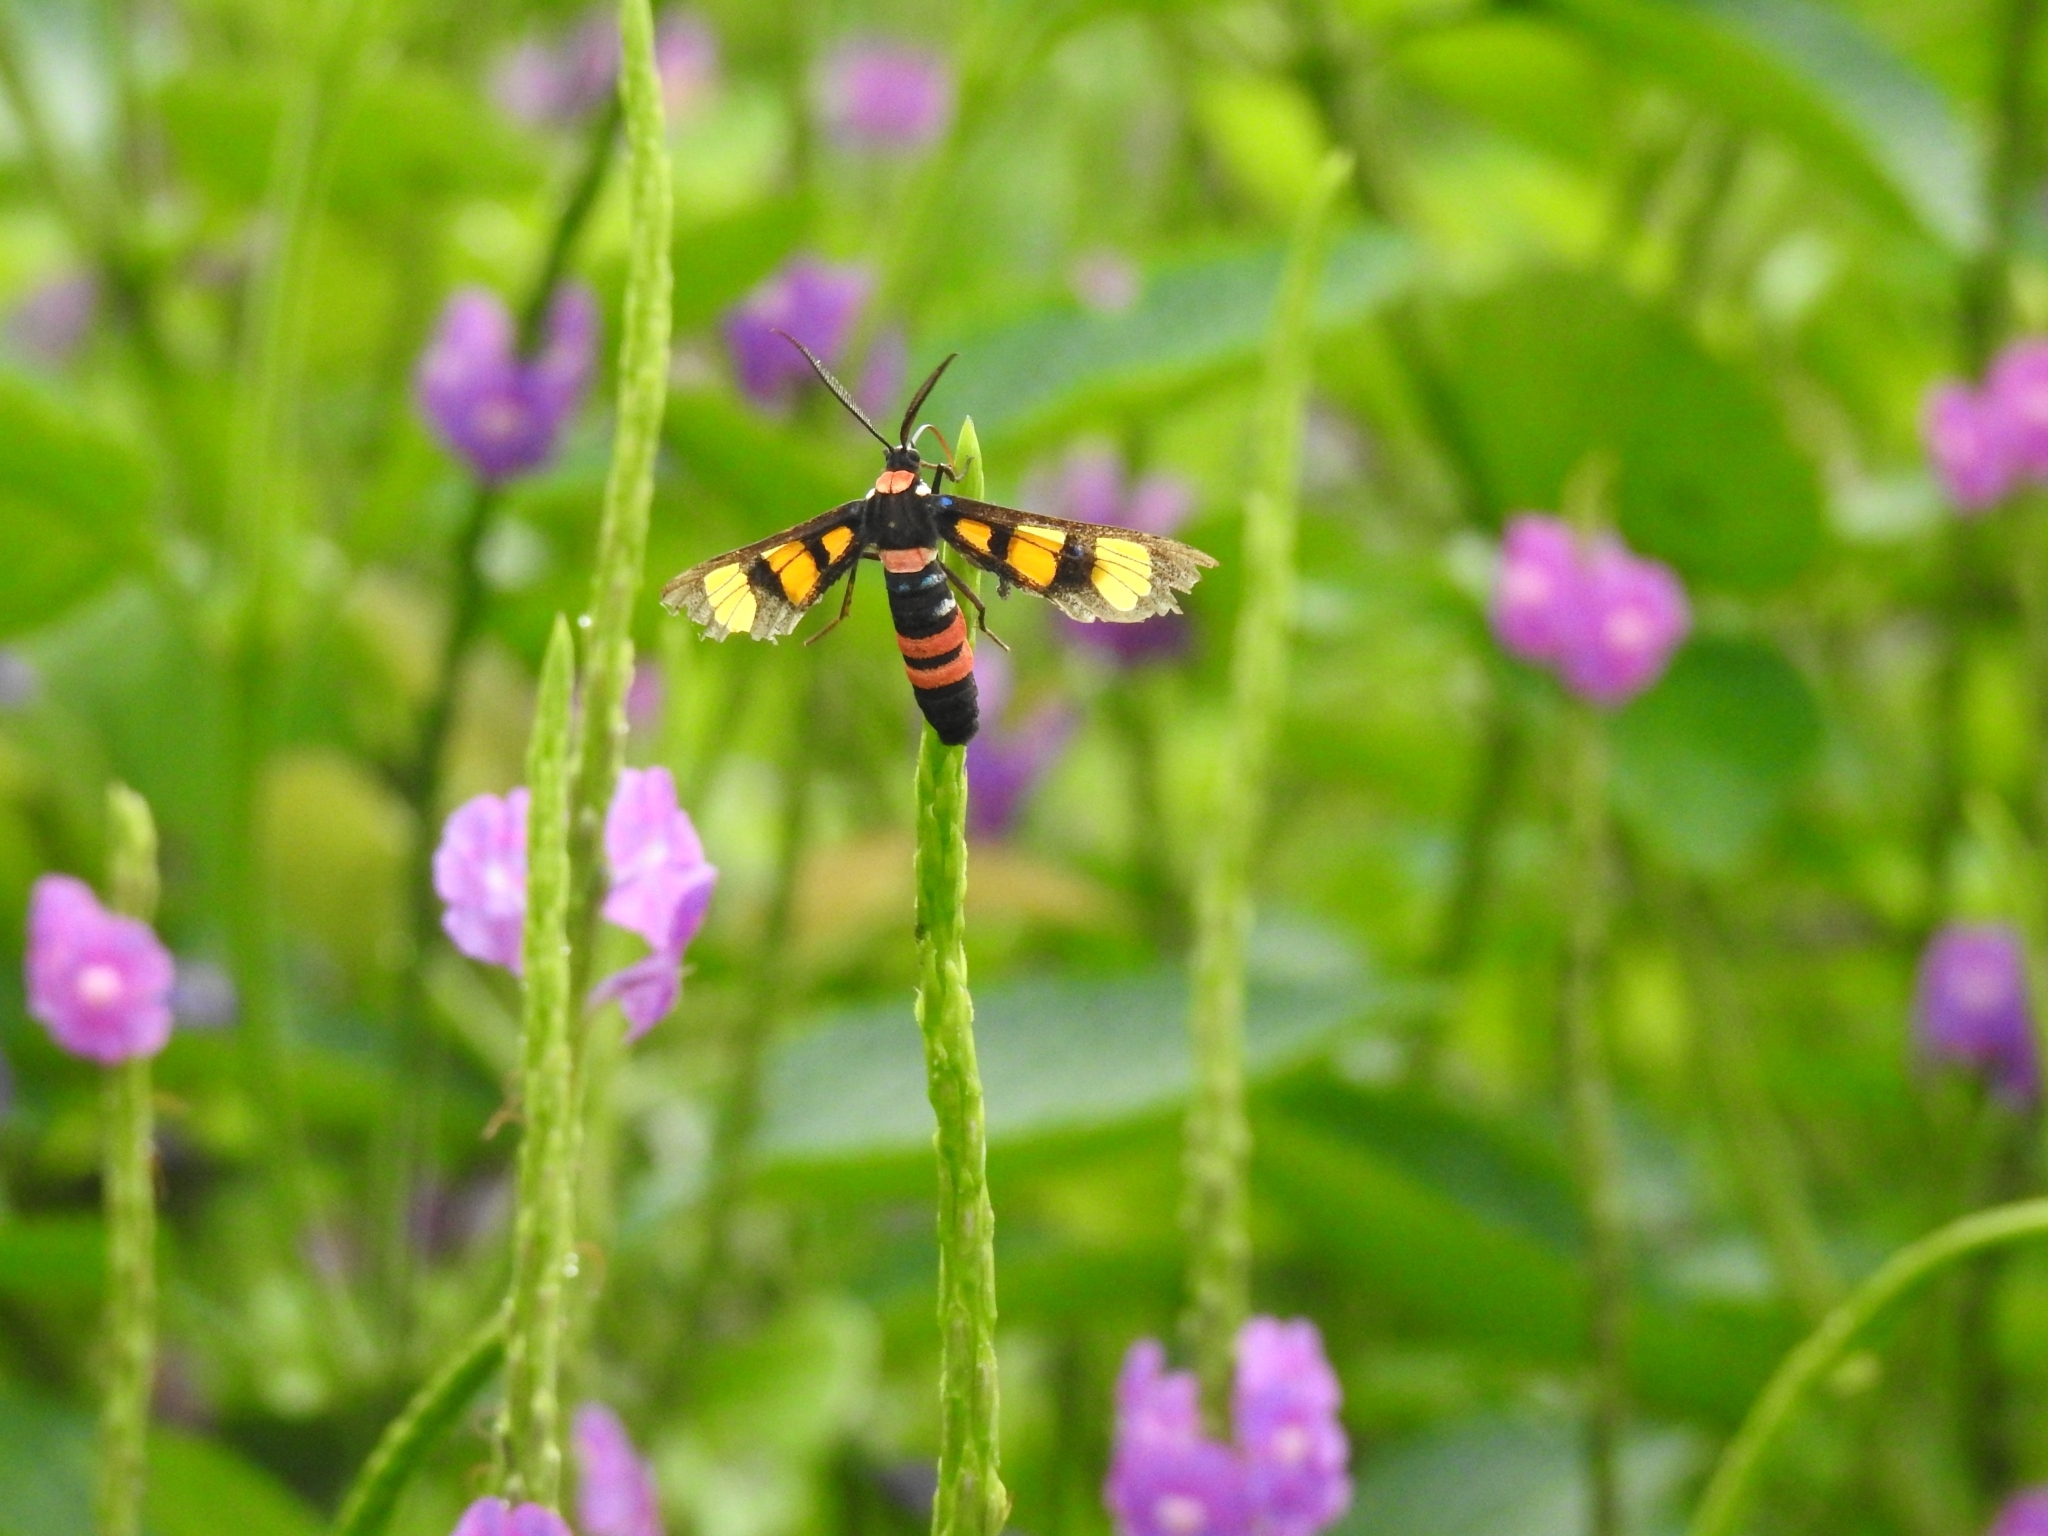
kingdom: Animalia
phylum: Arthropoda
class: Insecta
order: Lepidoptera
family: Erebidae
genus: Euchromia
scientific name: Euchromia polymena
